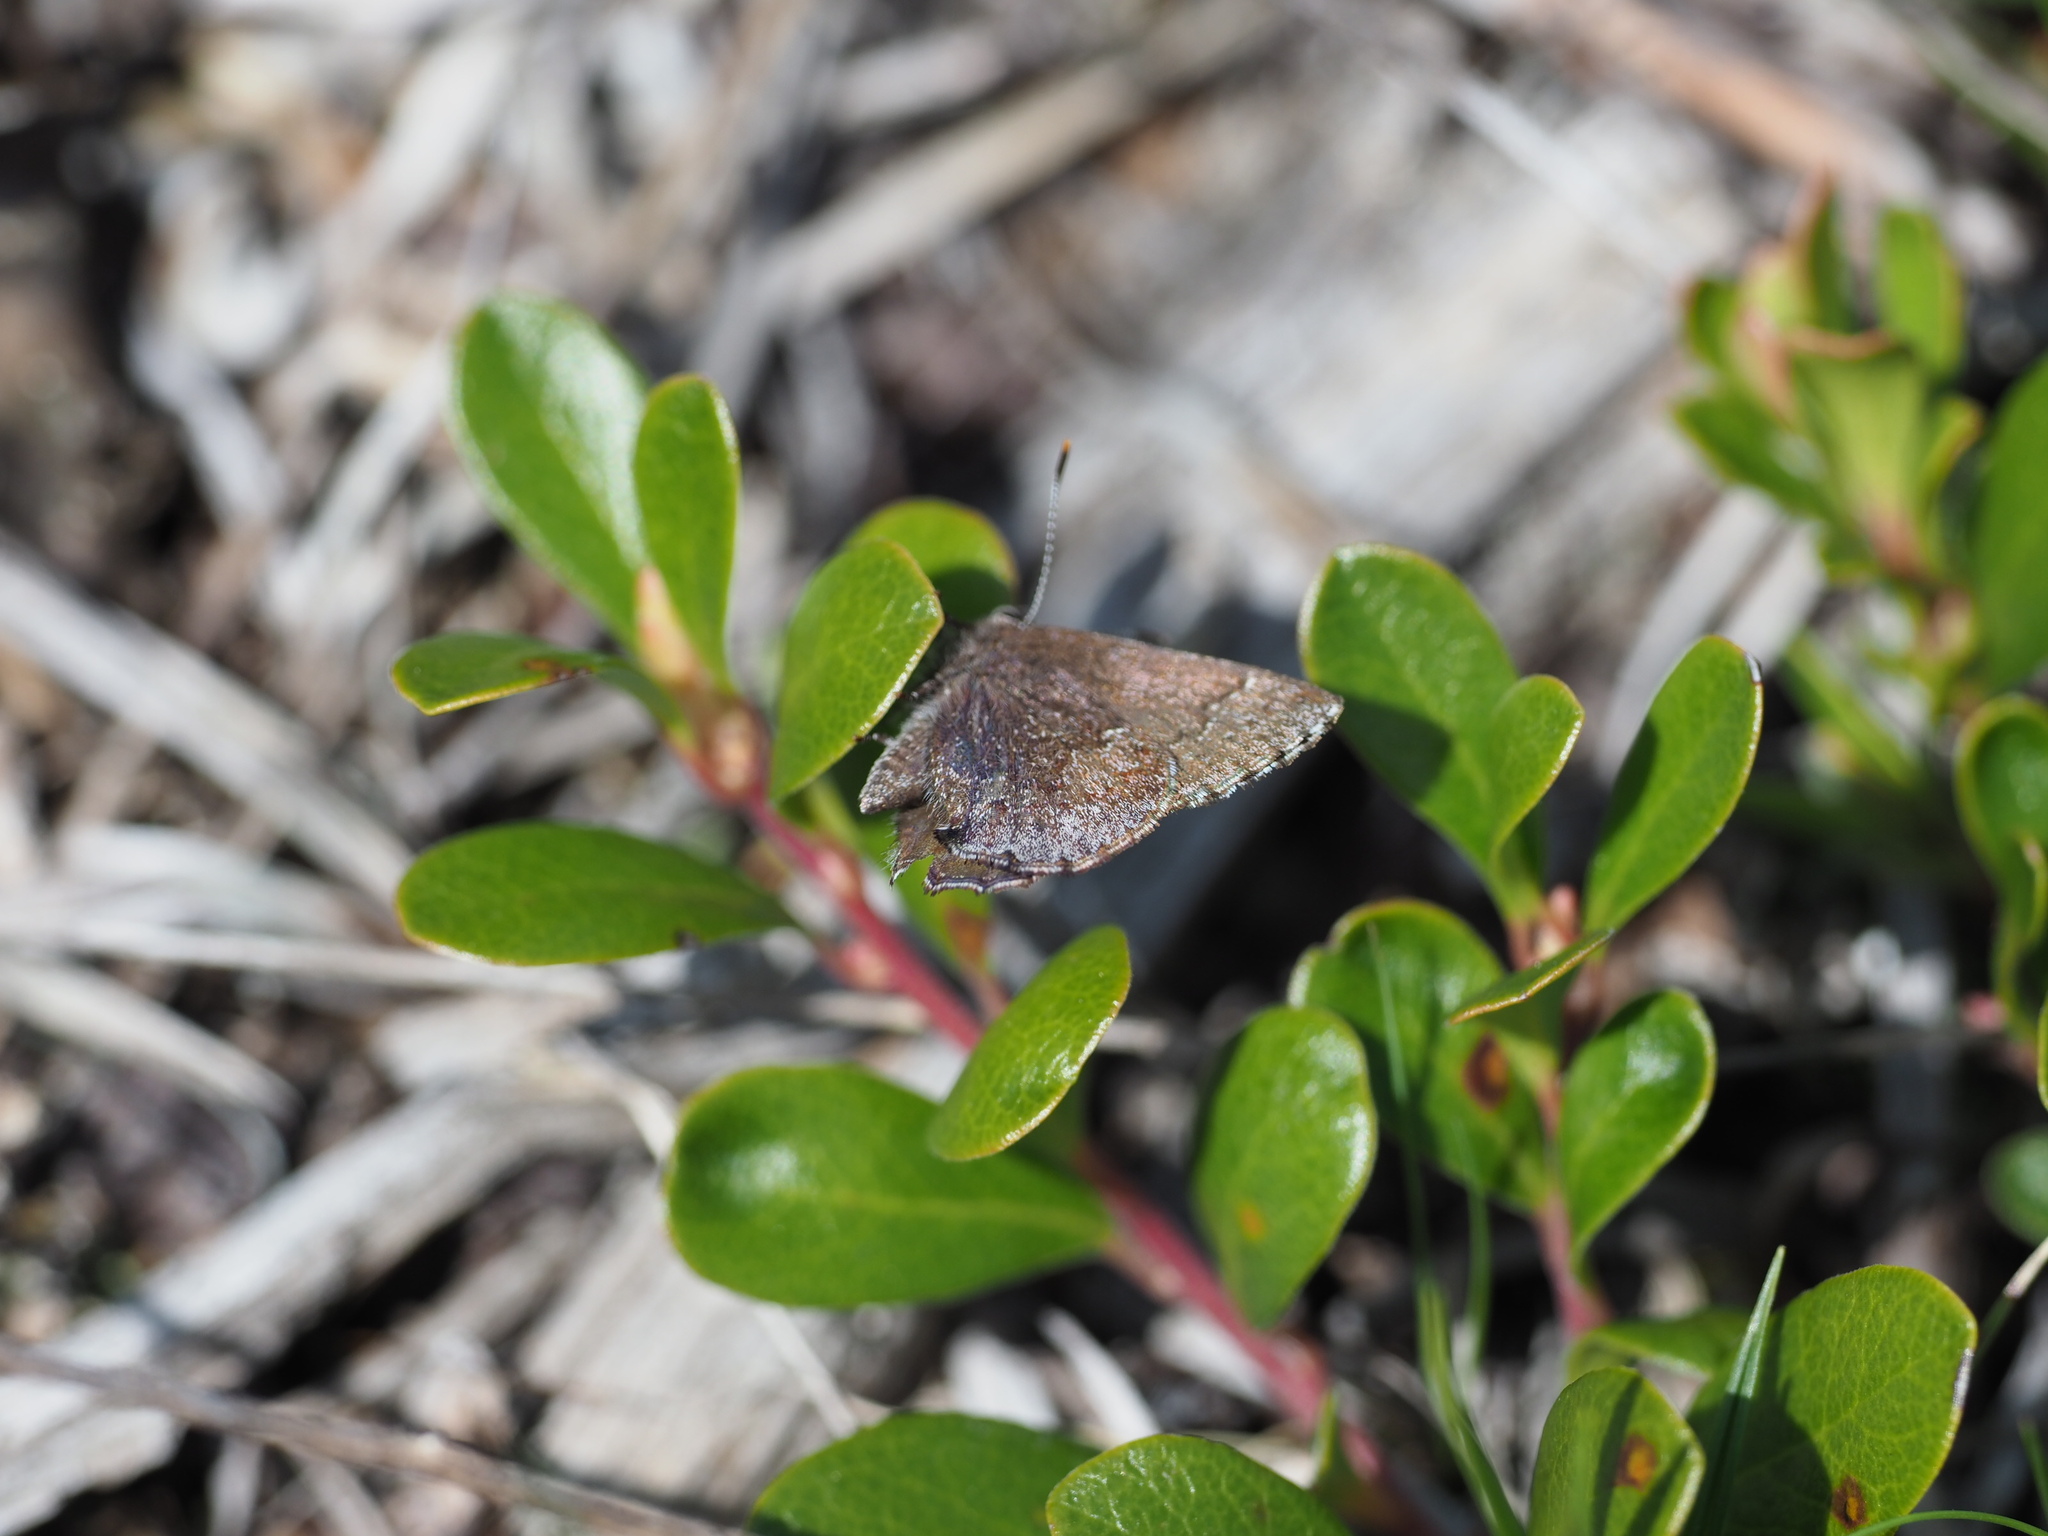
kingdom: Animalia
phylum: Arthropoda
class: Insecta
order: Lepidoptera
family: Lycaenidae
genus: Callophrys
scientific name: Callophrys polios
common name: Hoary elfin
